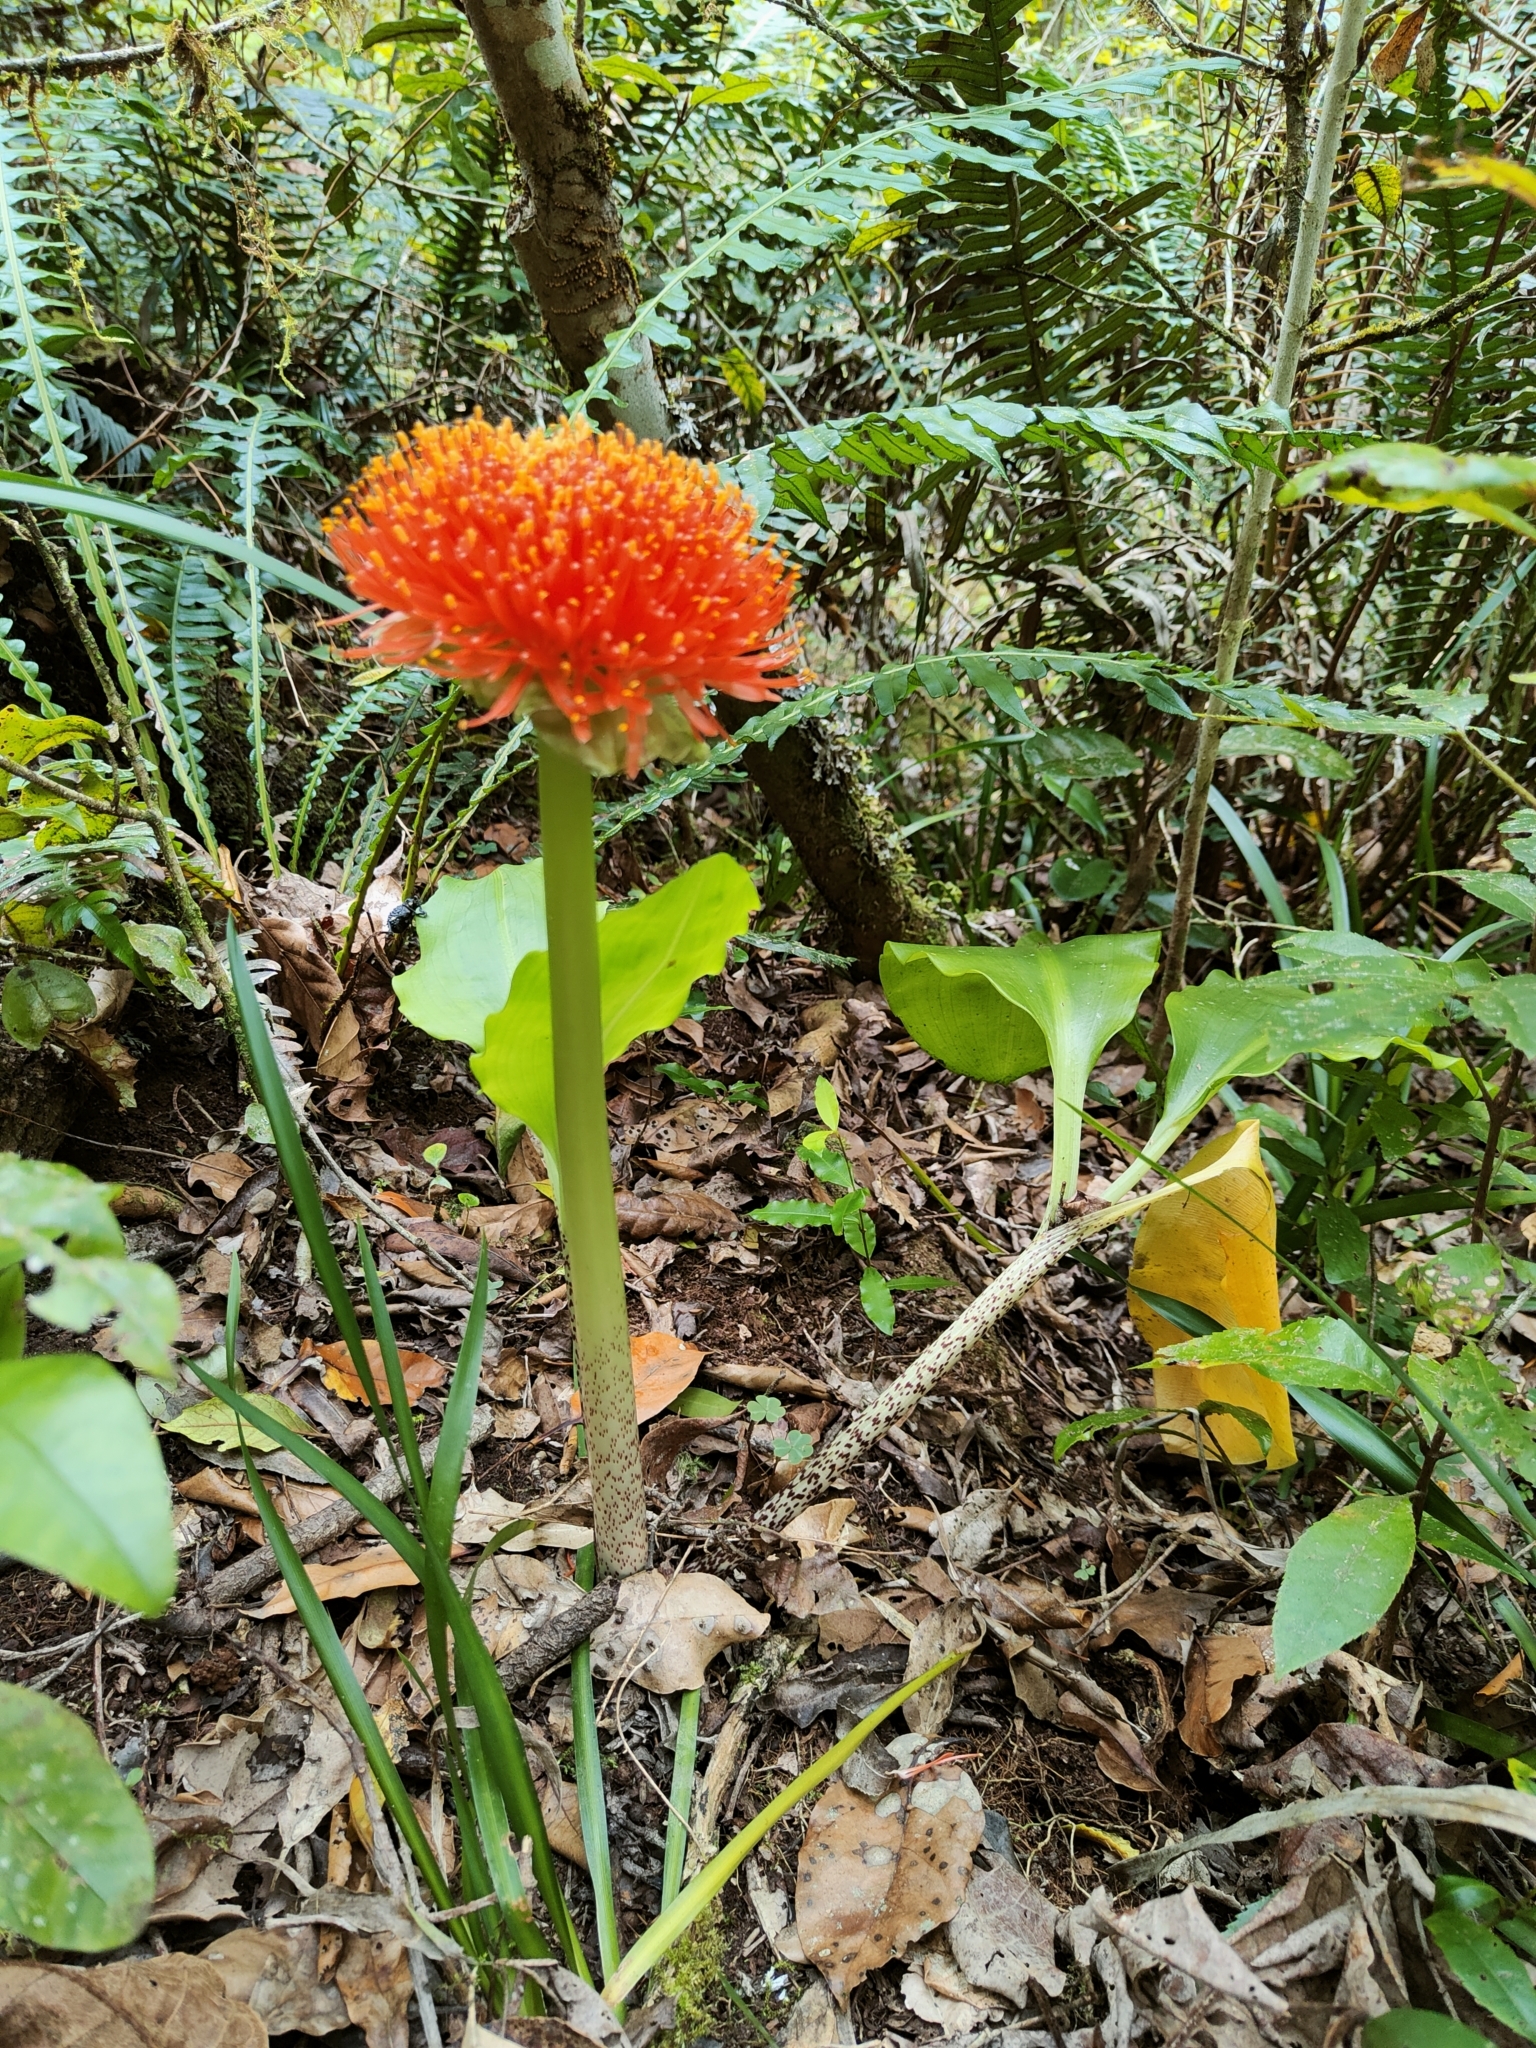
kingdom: Plantae
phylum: Tracheophyta
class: Liliopsida
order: Asparagales
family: Amaryllidaceae
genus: Scadoxus
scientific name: Scadoxus puniceus
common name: Royal-paintbrush
